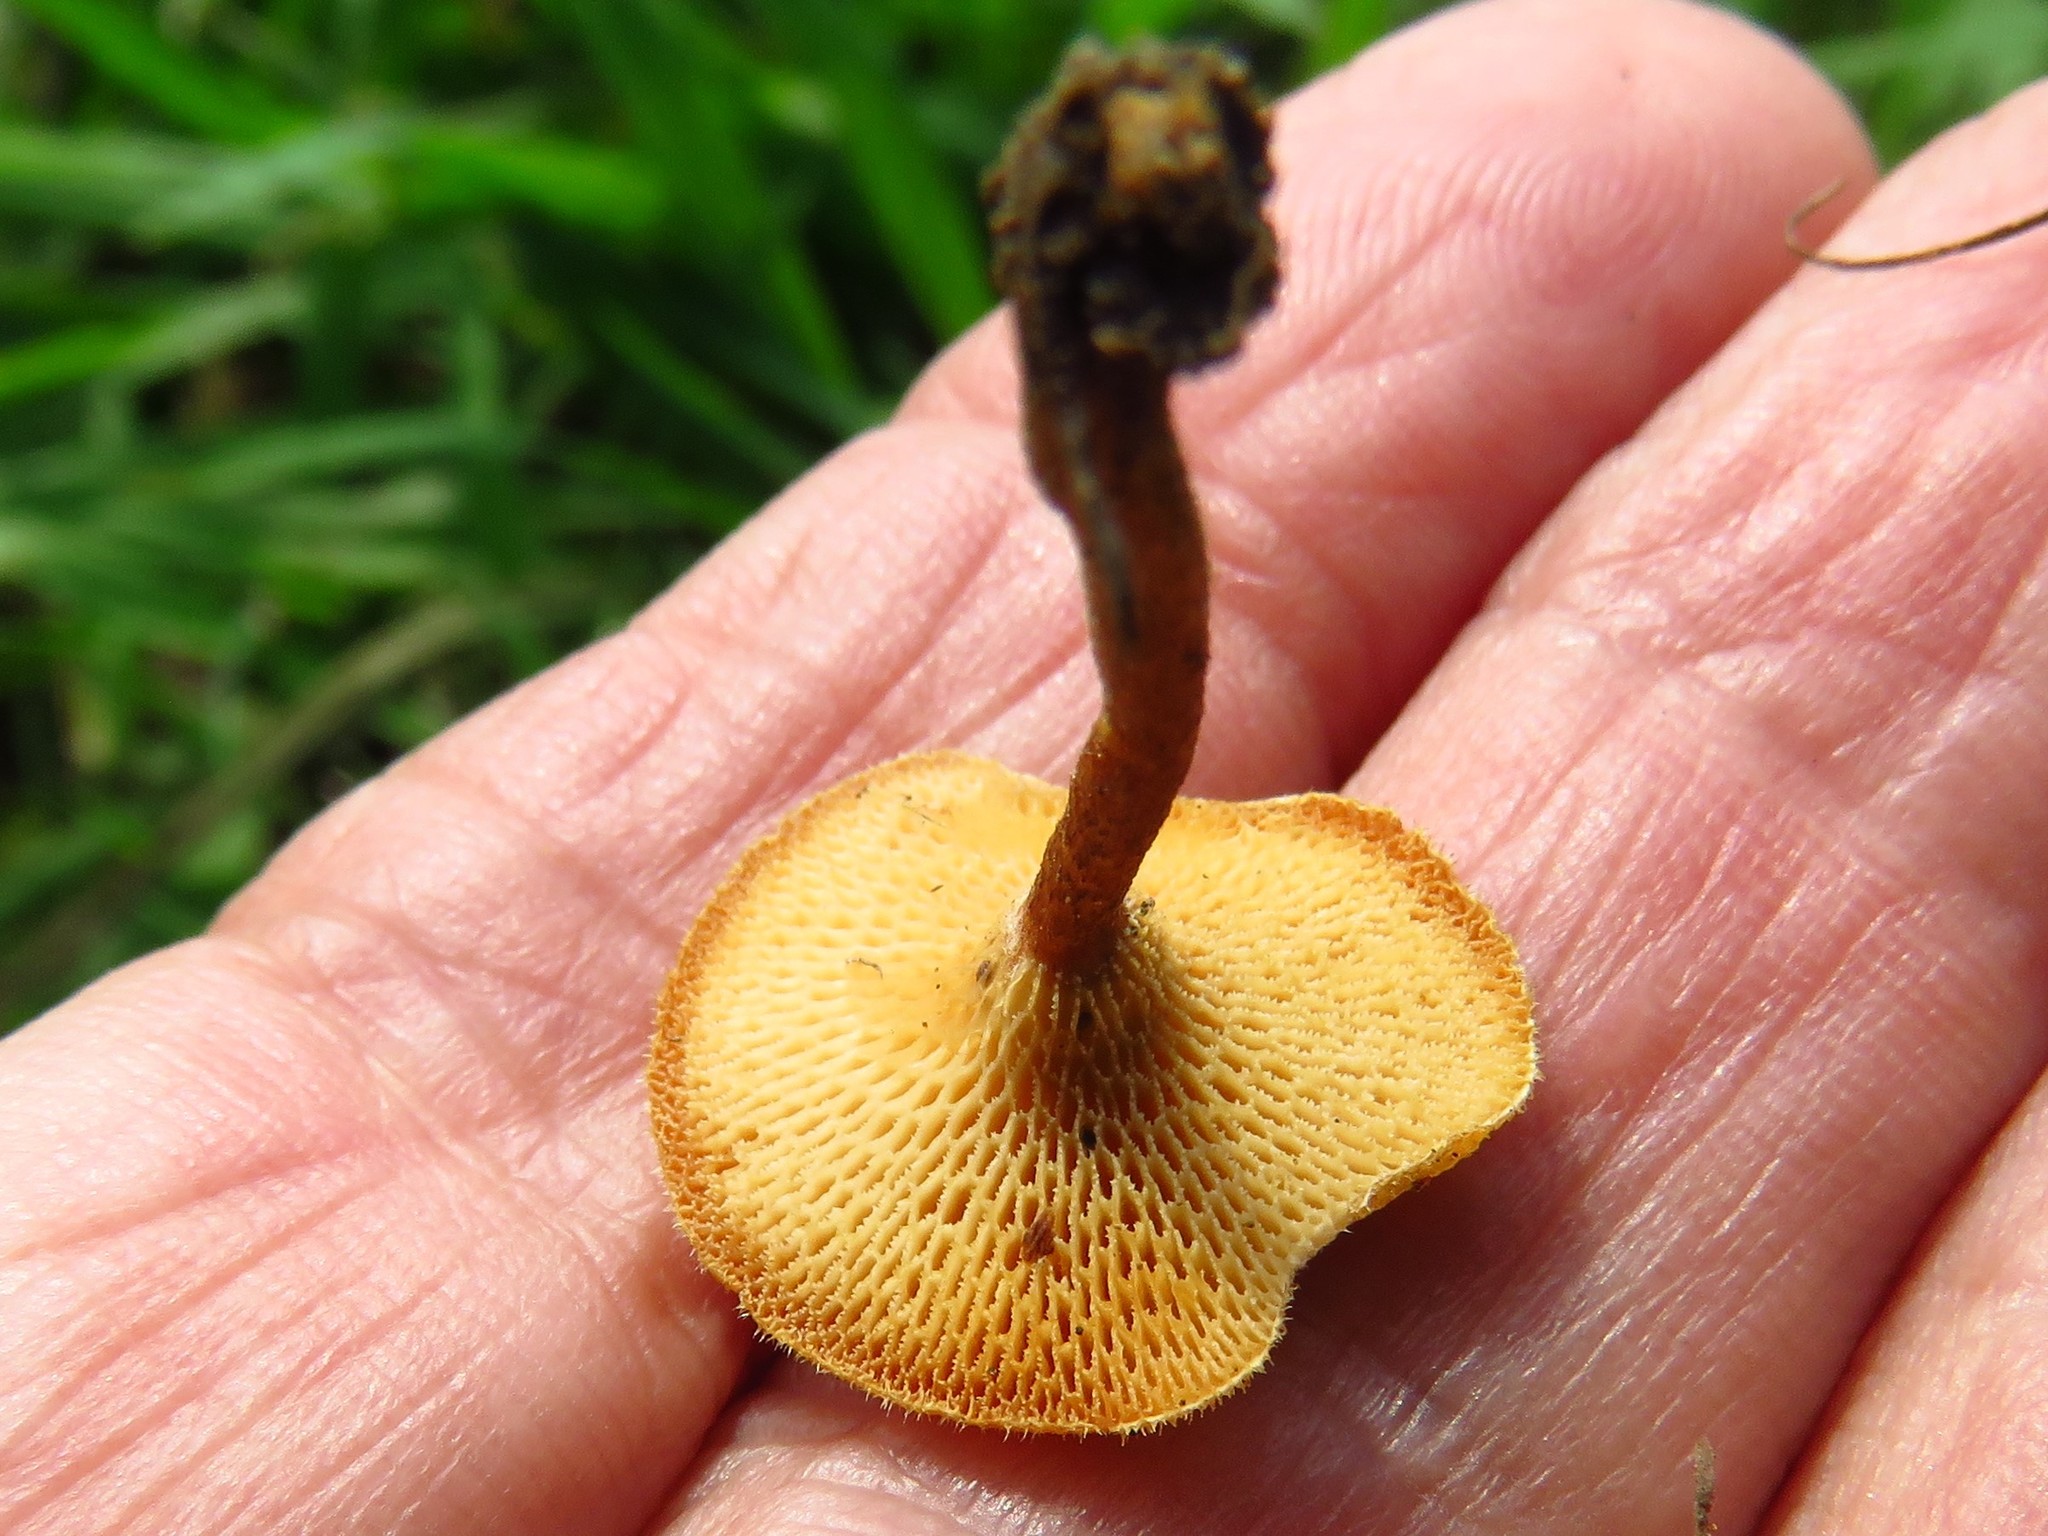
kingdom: Fungi
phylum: Basidiomycota
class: Agaricomycetes
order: Polyporales
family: Polyporaceae
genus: Lentinus
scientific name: Lentinus arcularius
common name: Spring polypore
